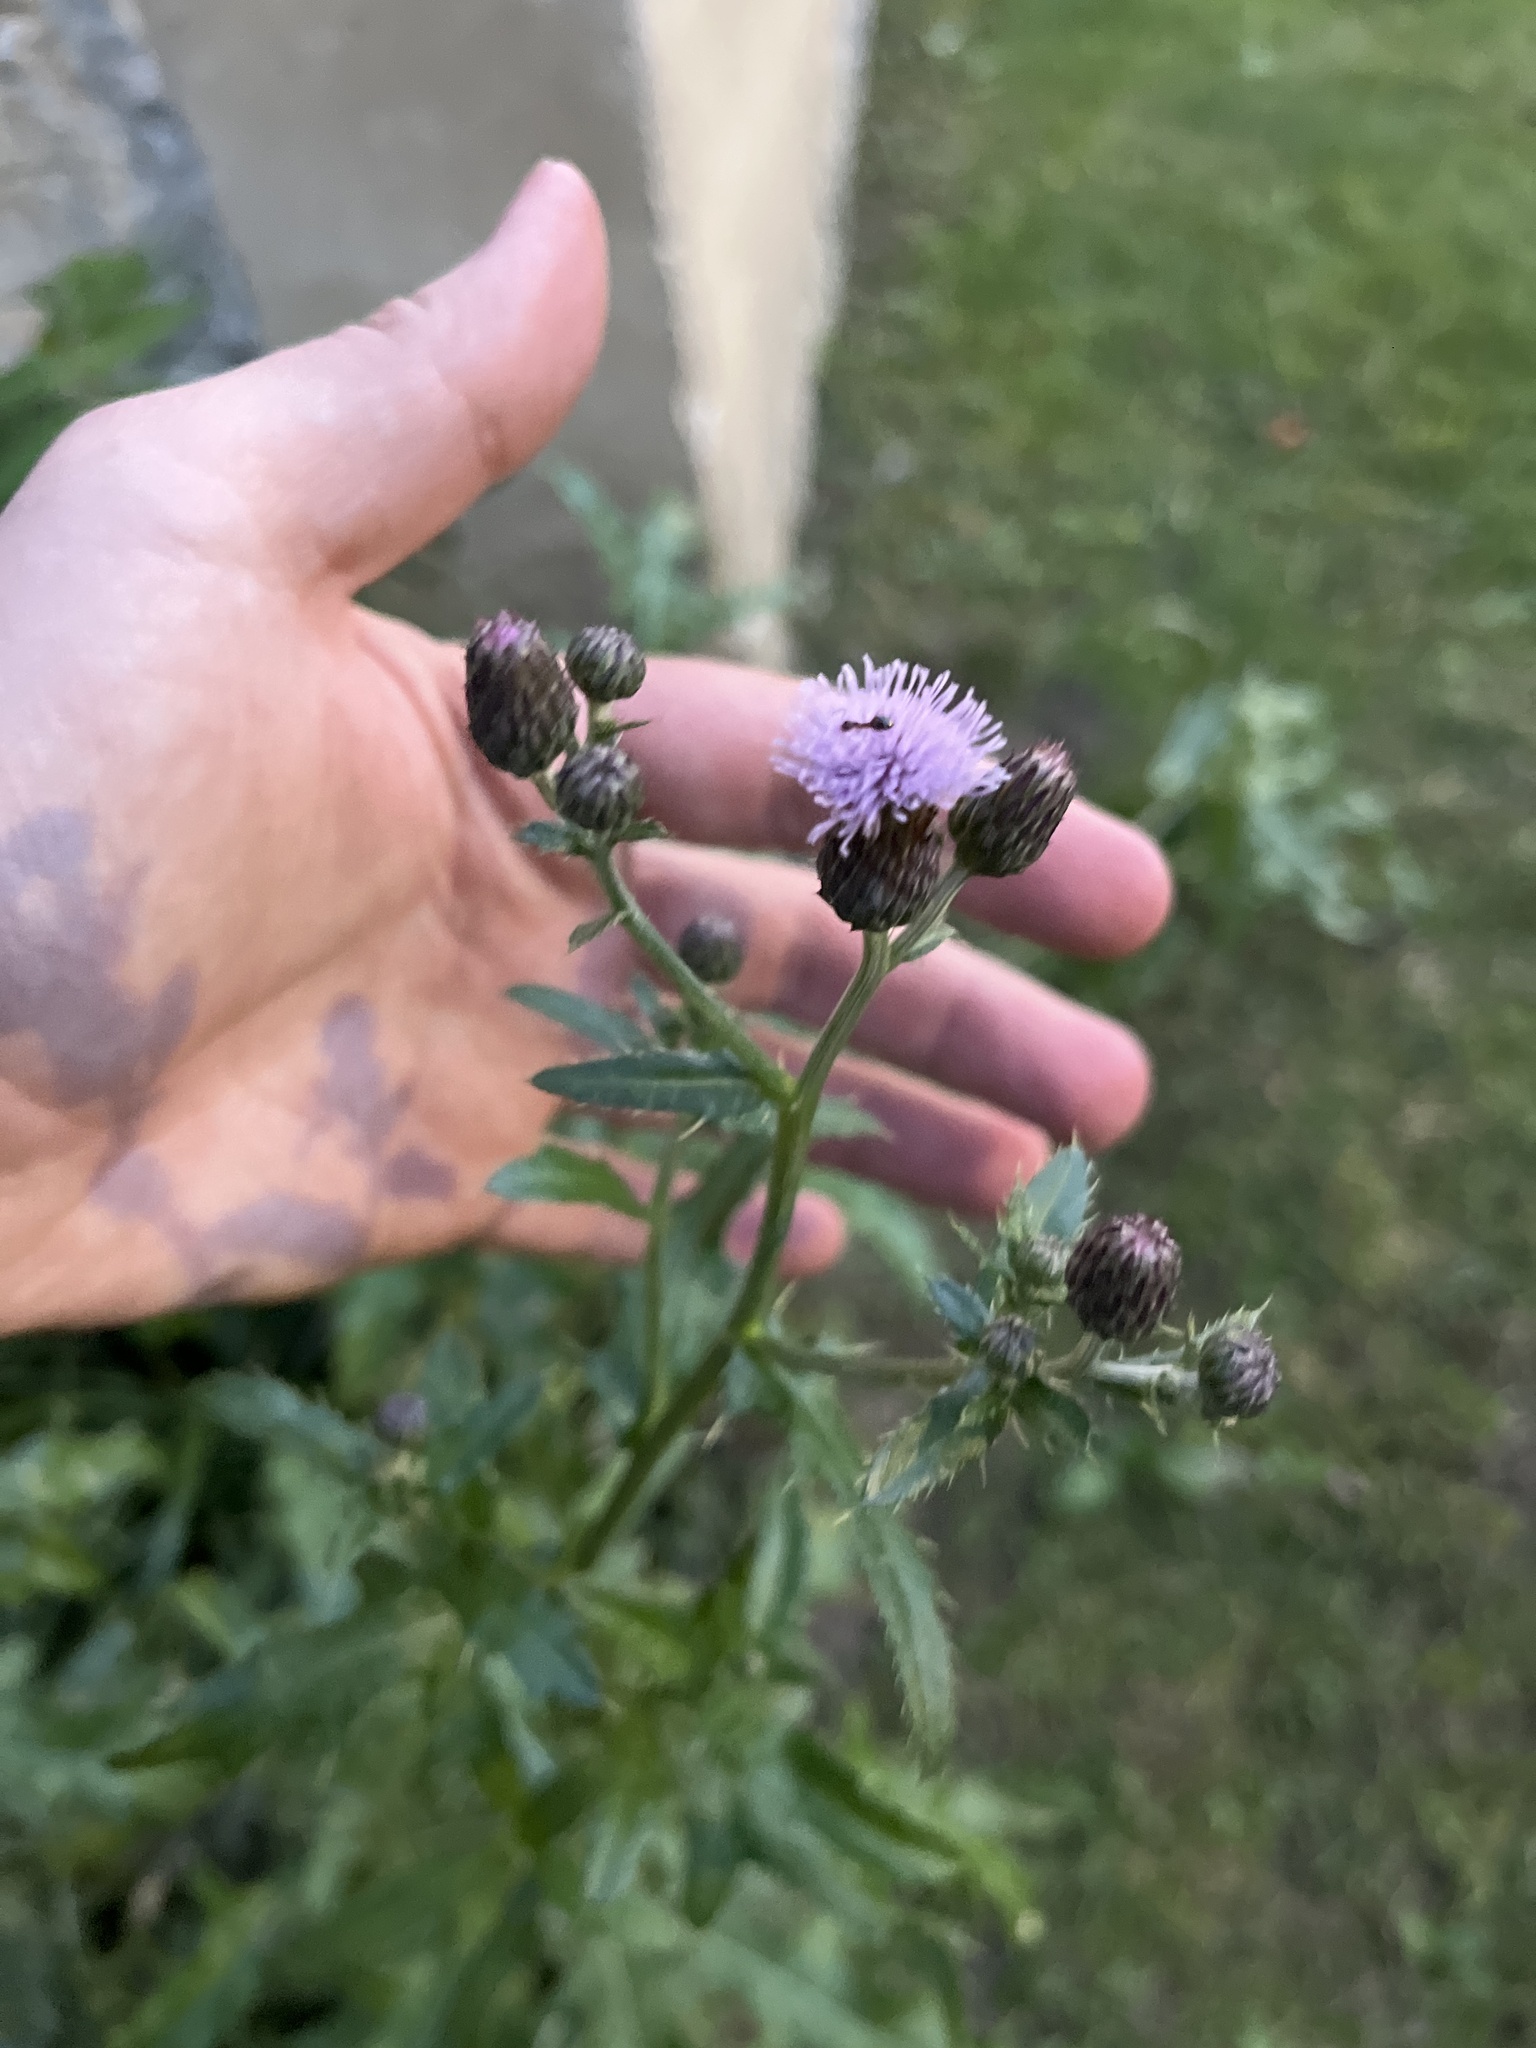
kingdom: Plantae
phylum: Tracheophyta
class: Magnoliopsida
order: Asterales
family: Asteraceae
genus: Cirsium
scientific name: Cirsium arvense
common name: Creeping thistle
